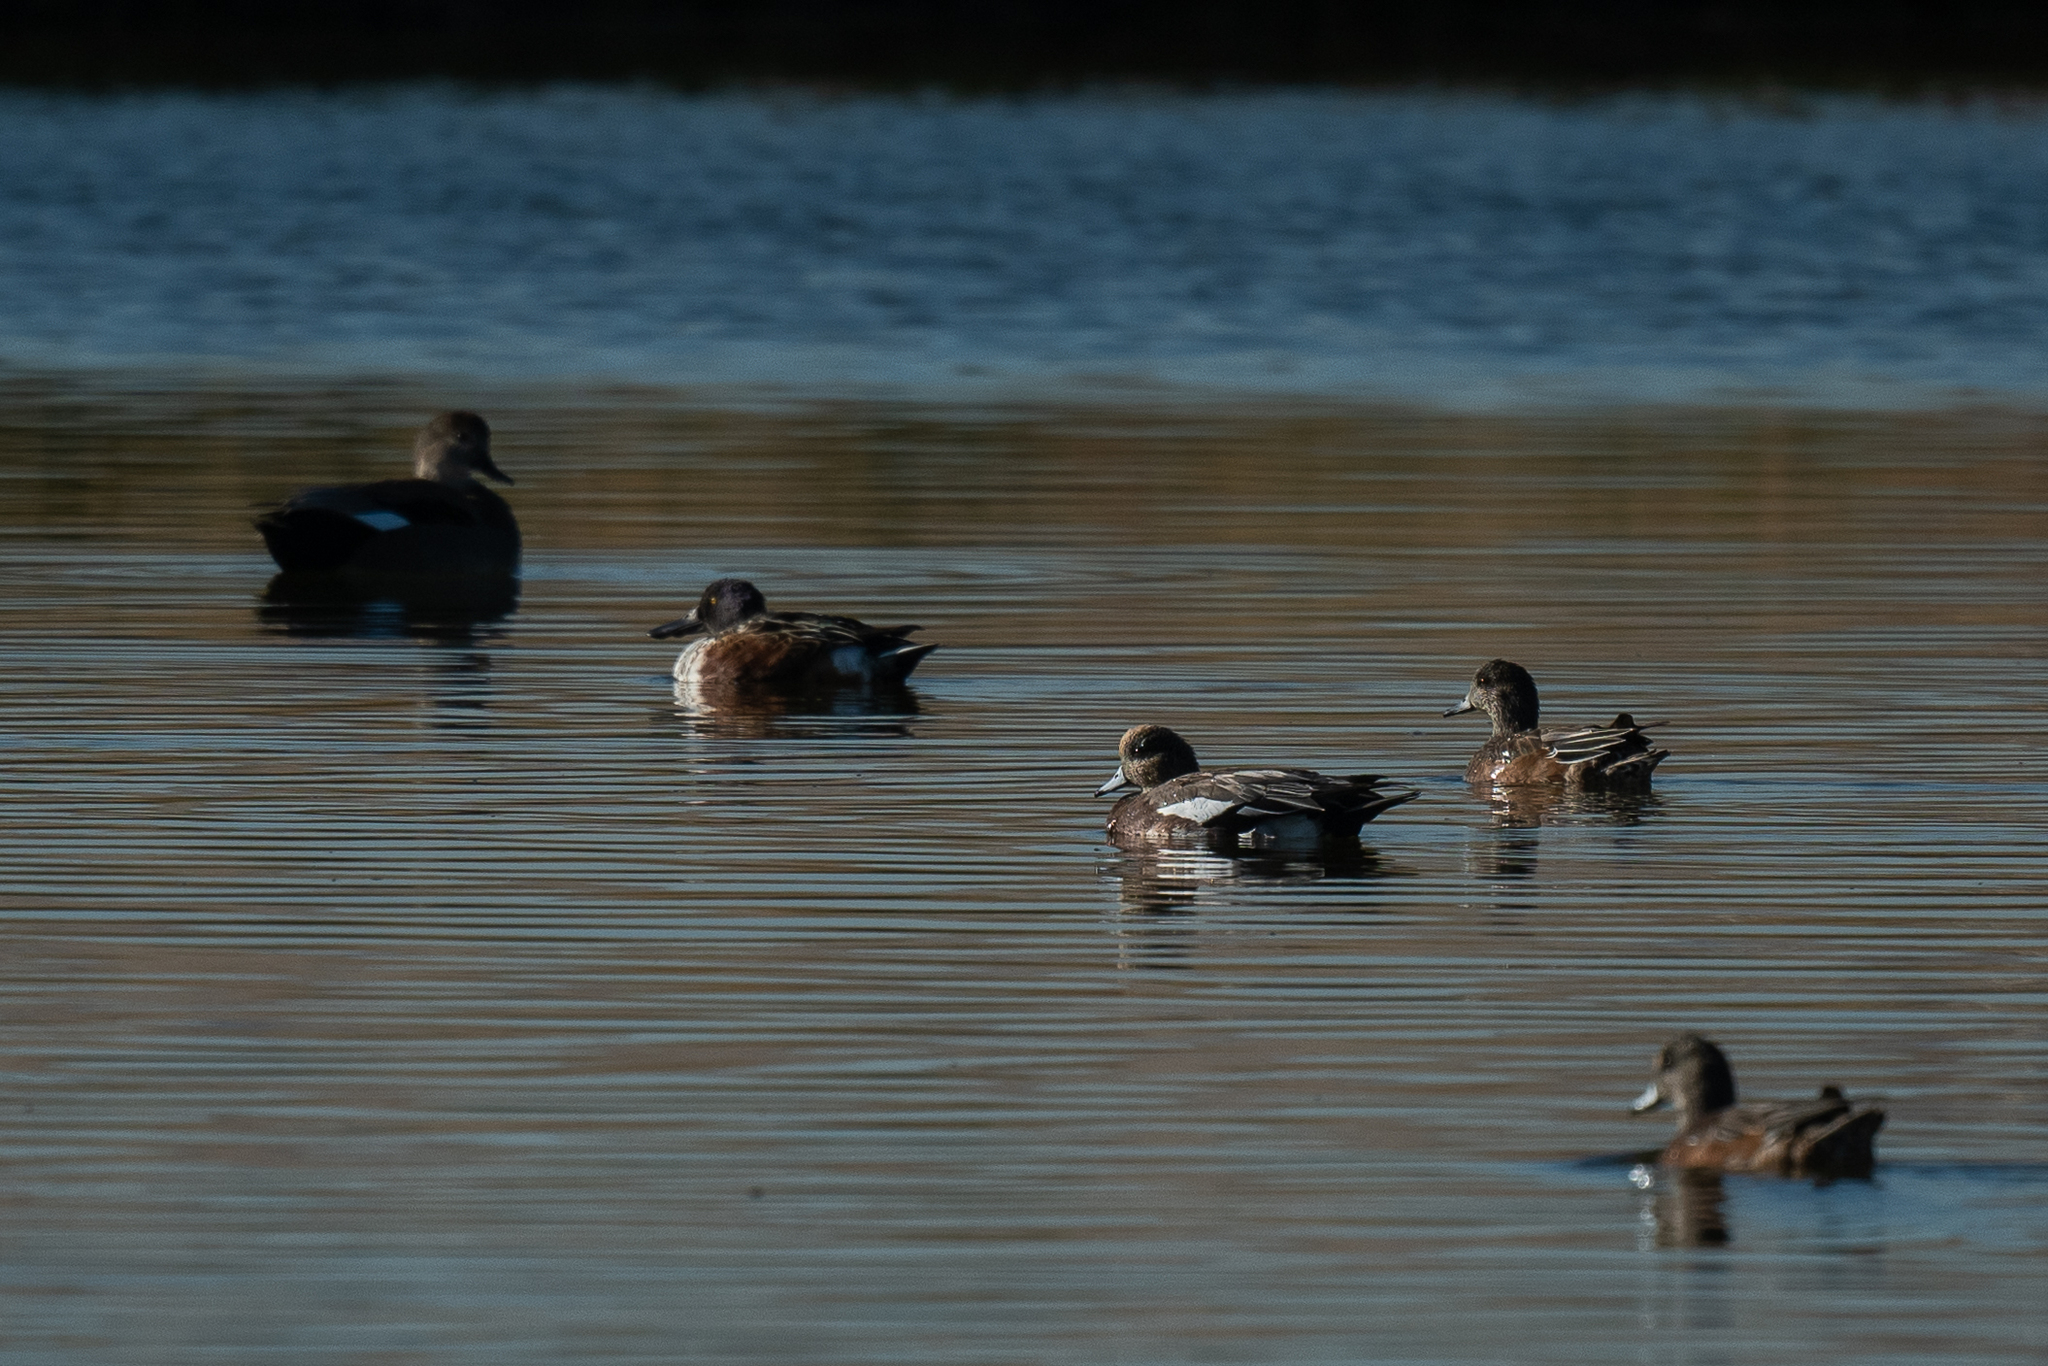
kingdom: Animalia
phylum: Chordata
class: Aves
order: Anseriformes
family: Anatidae
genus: Mareca
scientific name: Mareca strepera
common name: Gadwall
